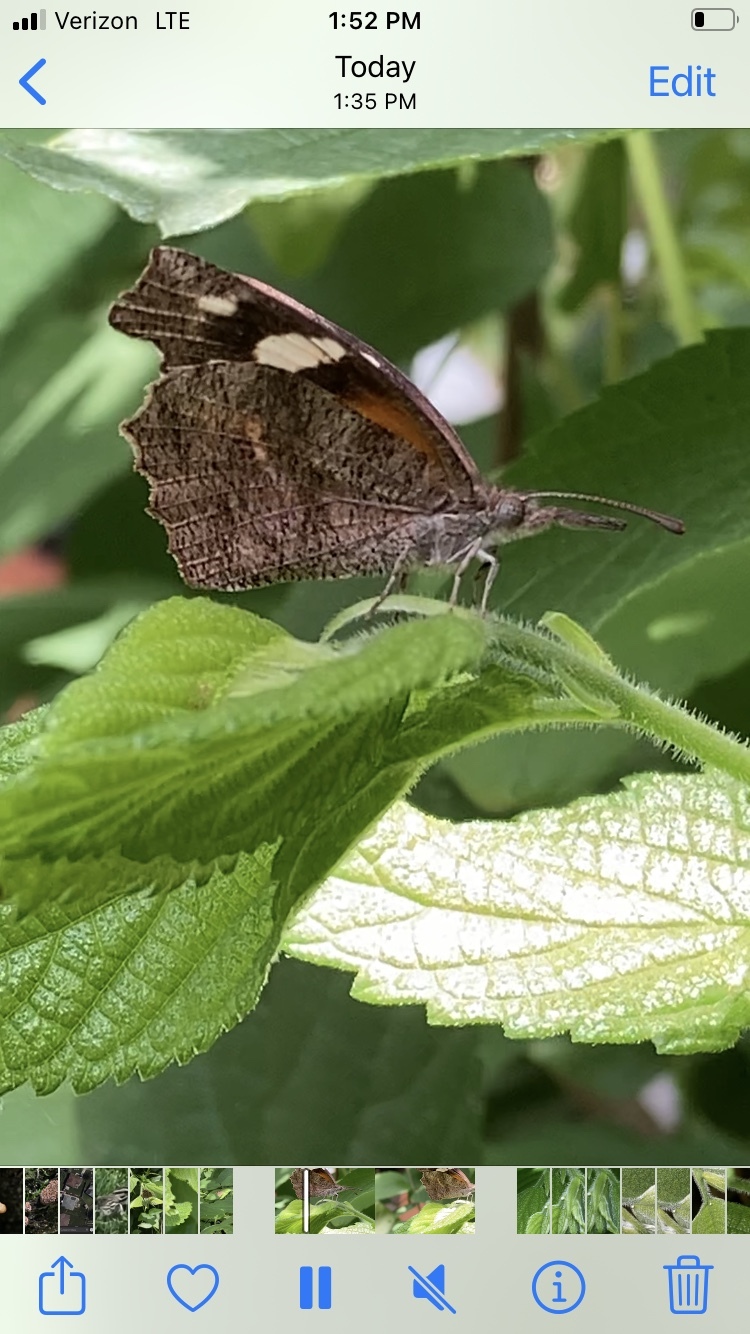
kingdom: Animalia
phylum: Arthropoda
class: Insecta
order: Lepidoptera
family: Nymphalidae
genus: Libytheana
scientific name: Libytheana carinenta
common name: American snout
